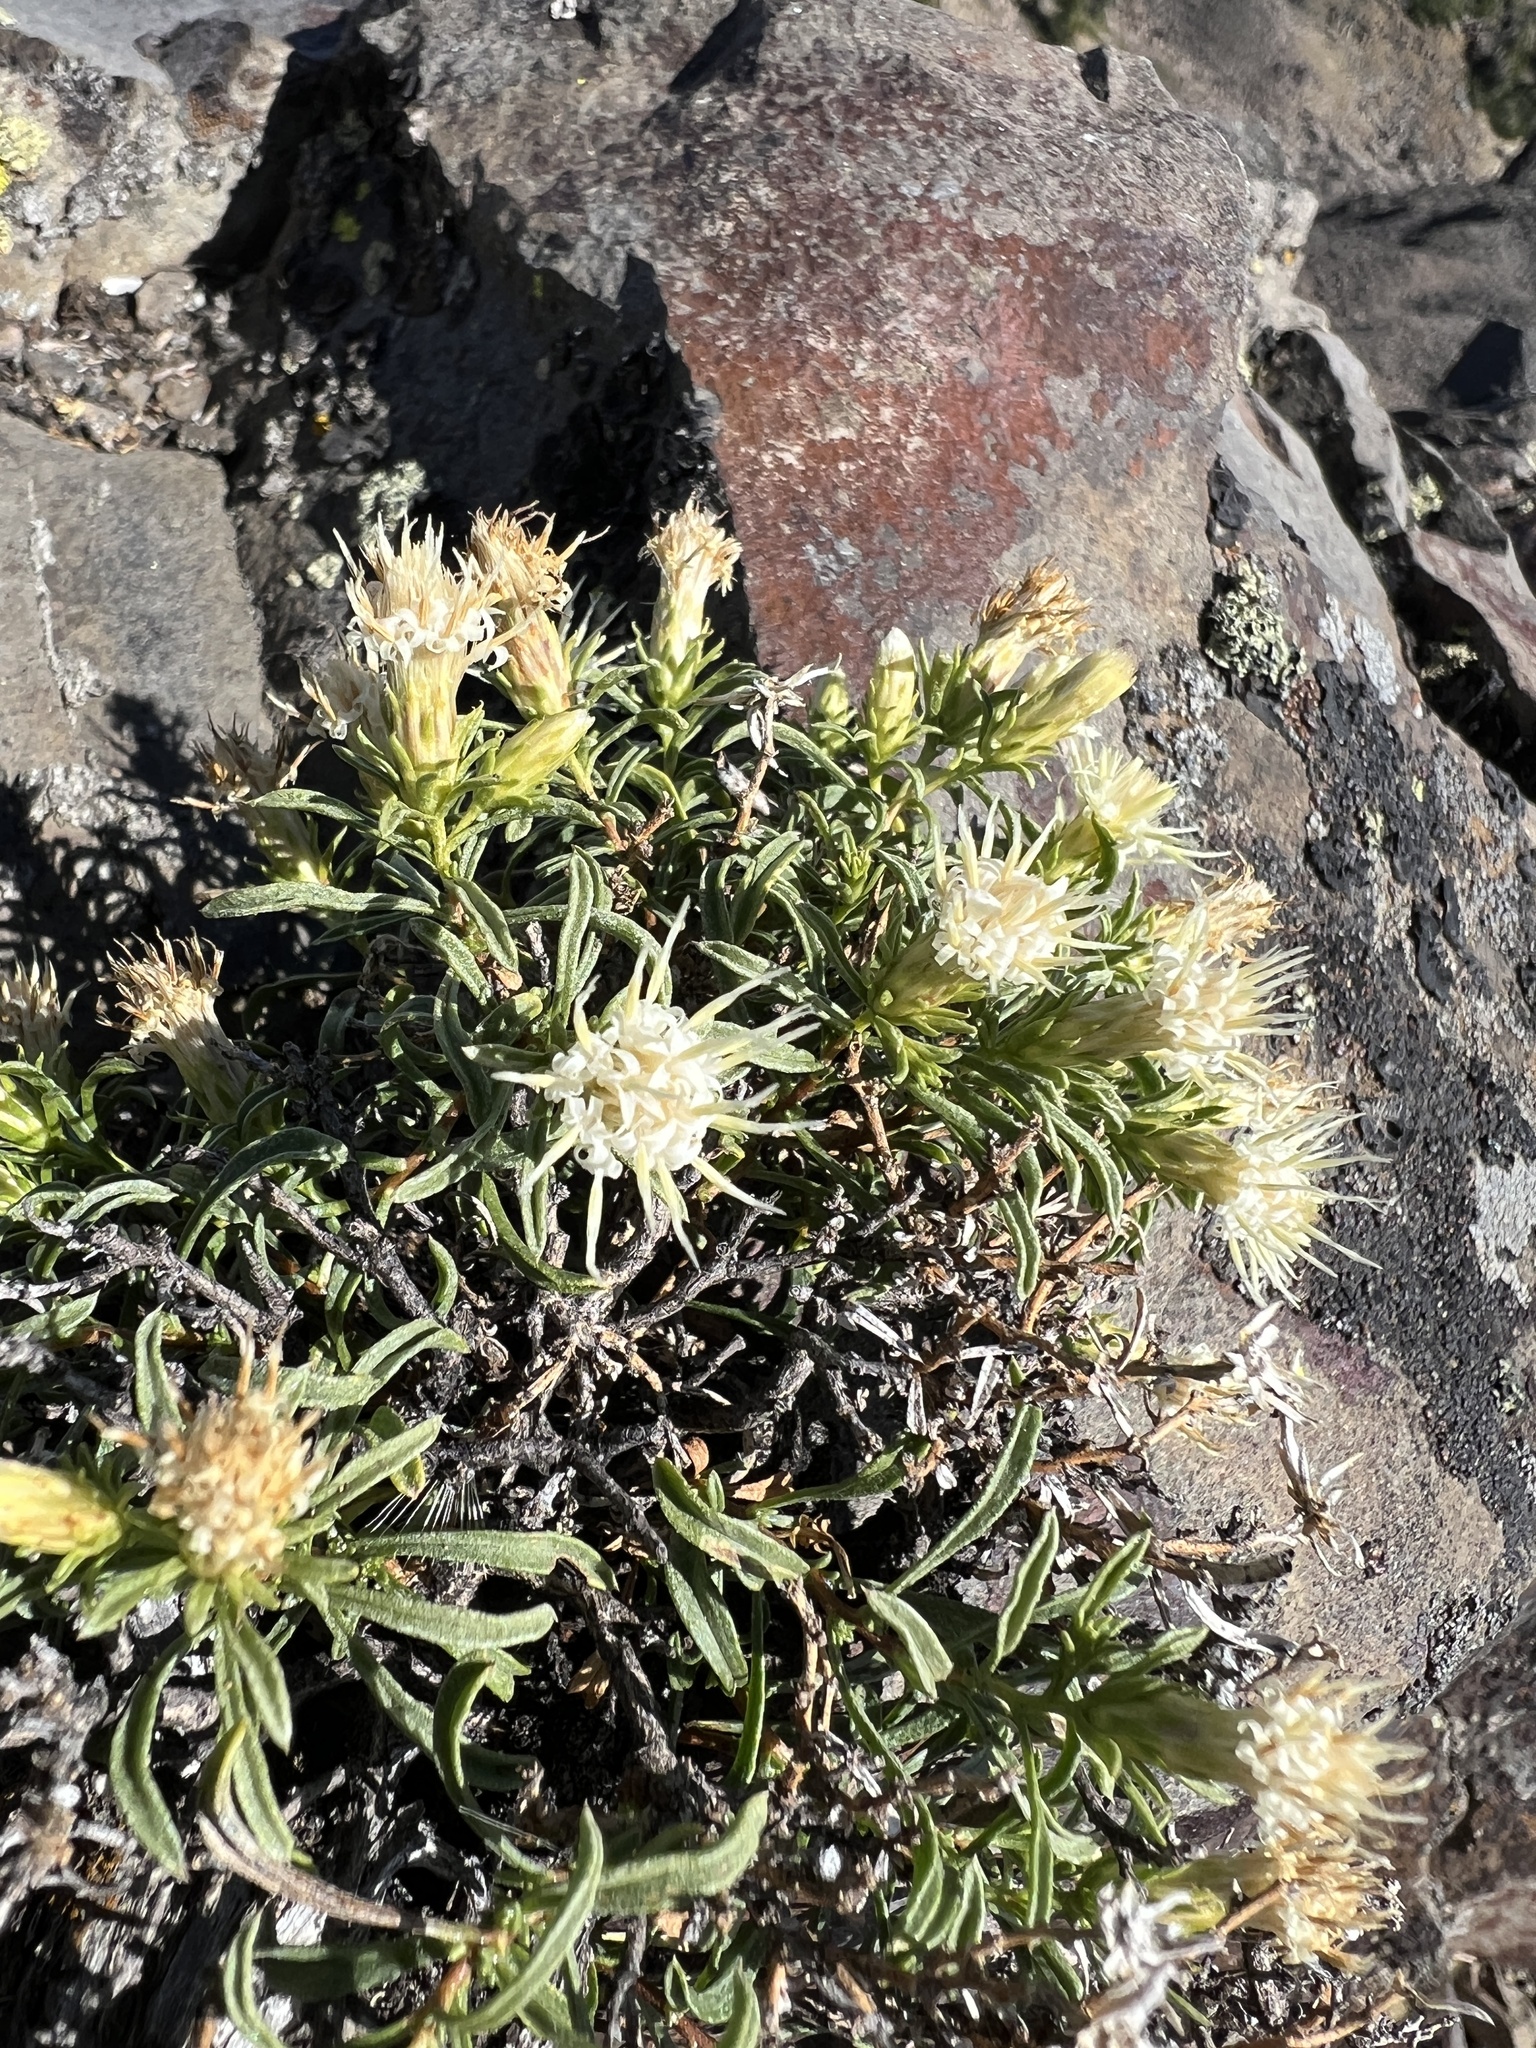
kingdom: Plantae
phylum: Tracheophyta
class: Magnoliopsida
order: Asterales
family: Asteraceae
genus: Ericameria
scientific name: Ericameria resinosa
